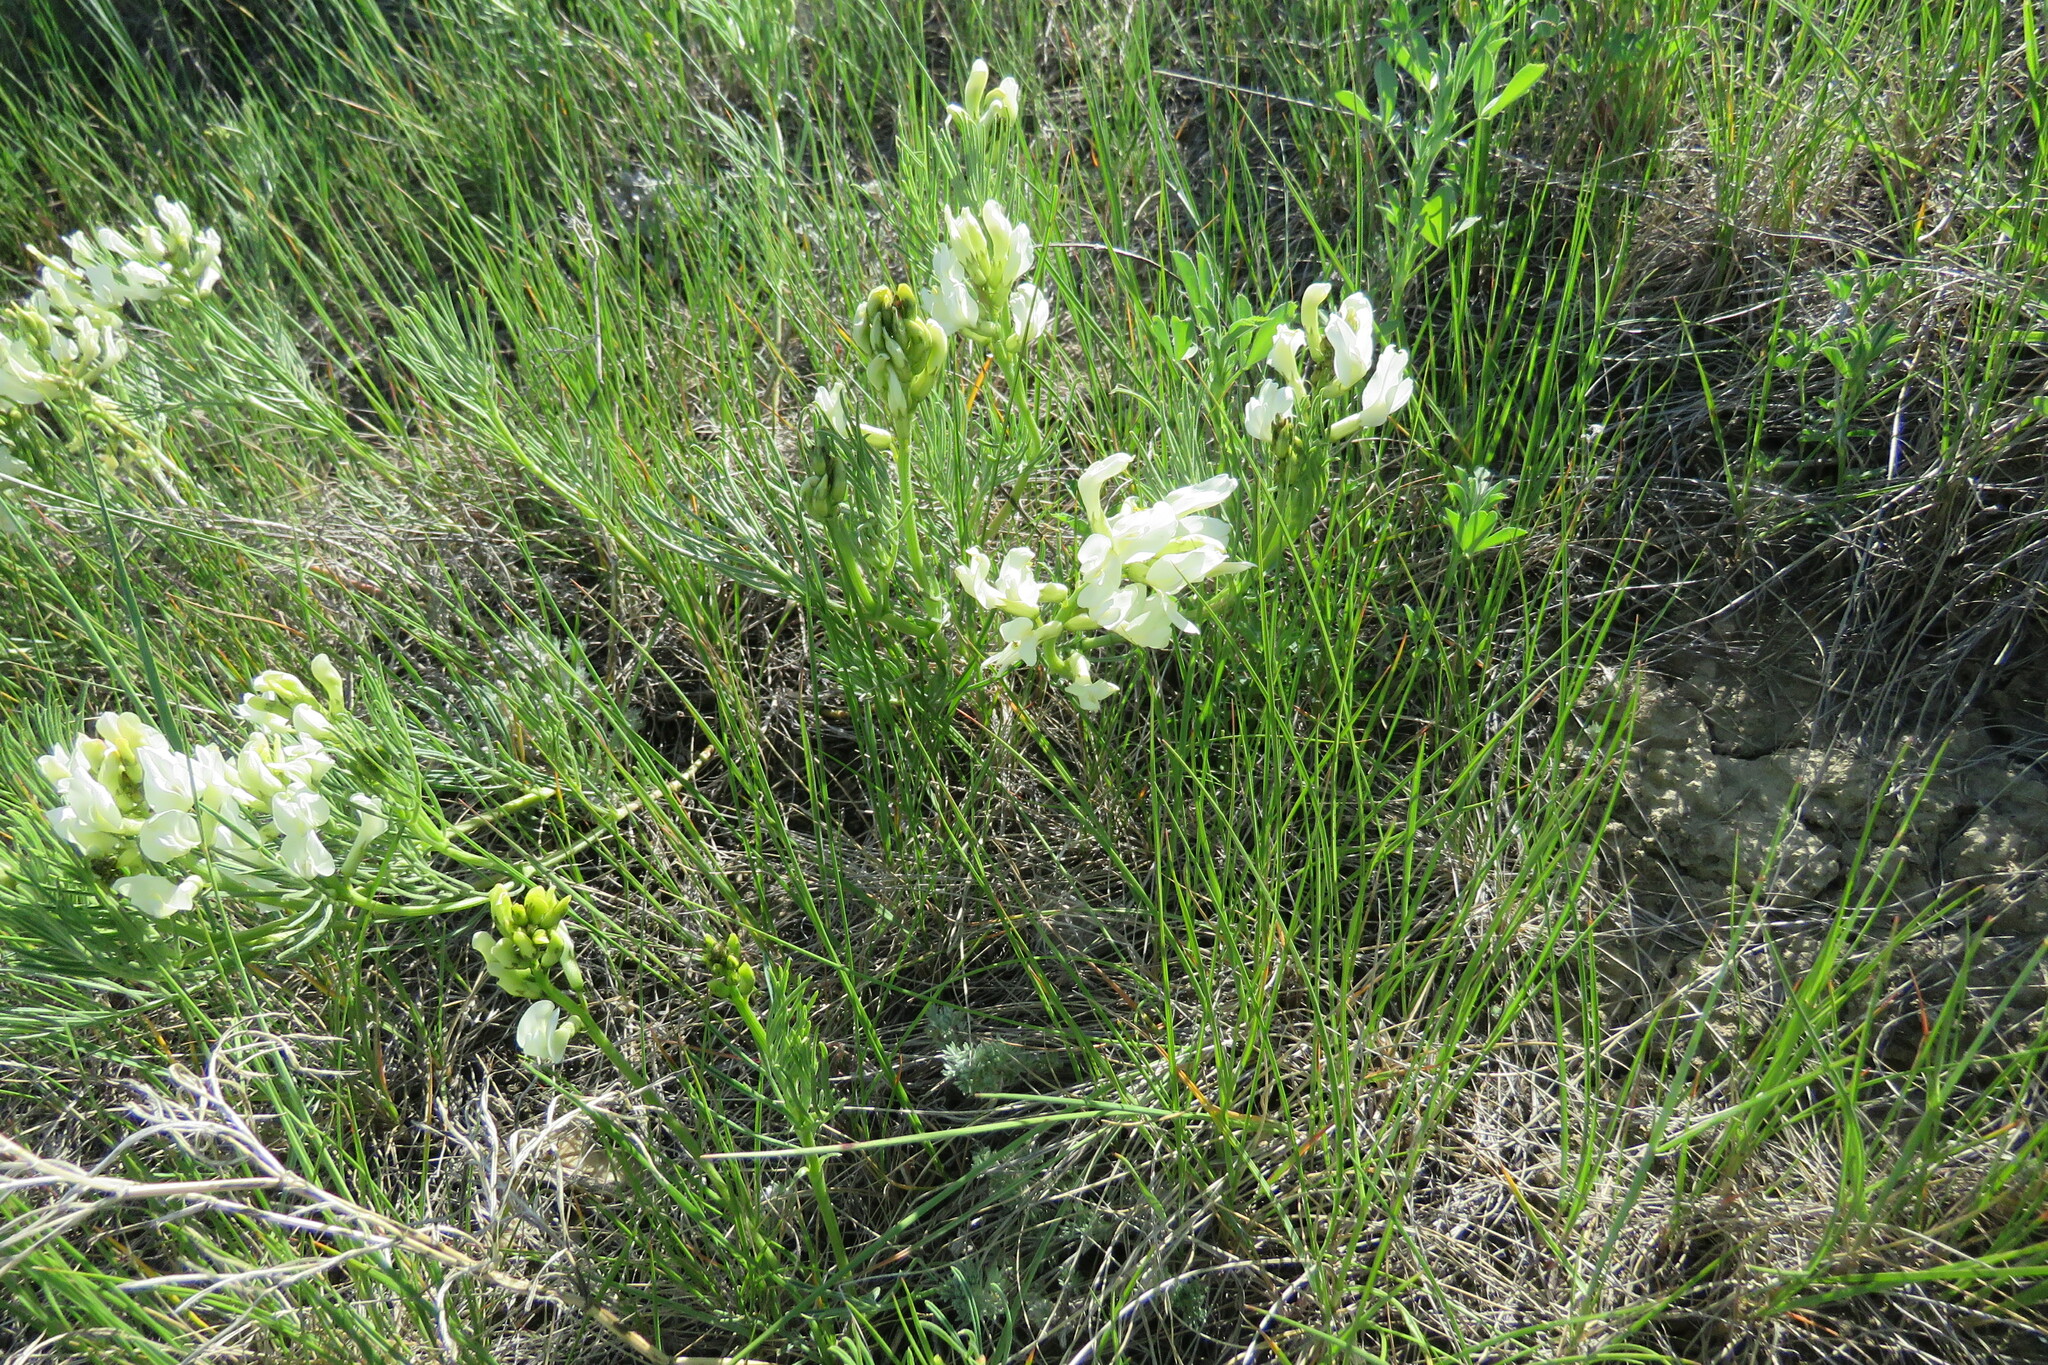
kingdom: Plantae
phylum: Tracheophyta
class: Magnoliopsida
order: Fabales
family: Fabaceae
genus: Astragalus
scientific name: Astragalus pectinatus
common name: Tine-leaf milk-vetch
